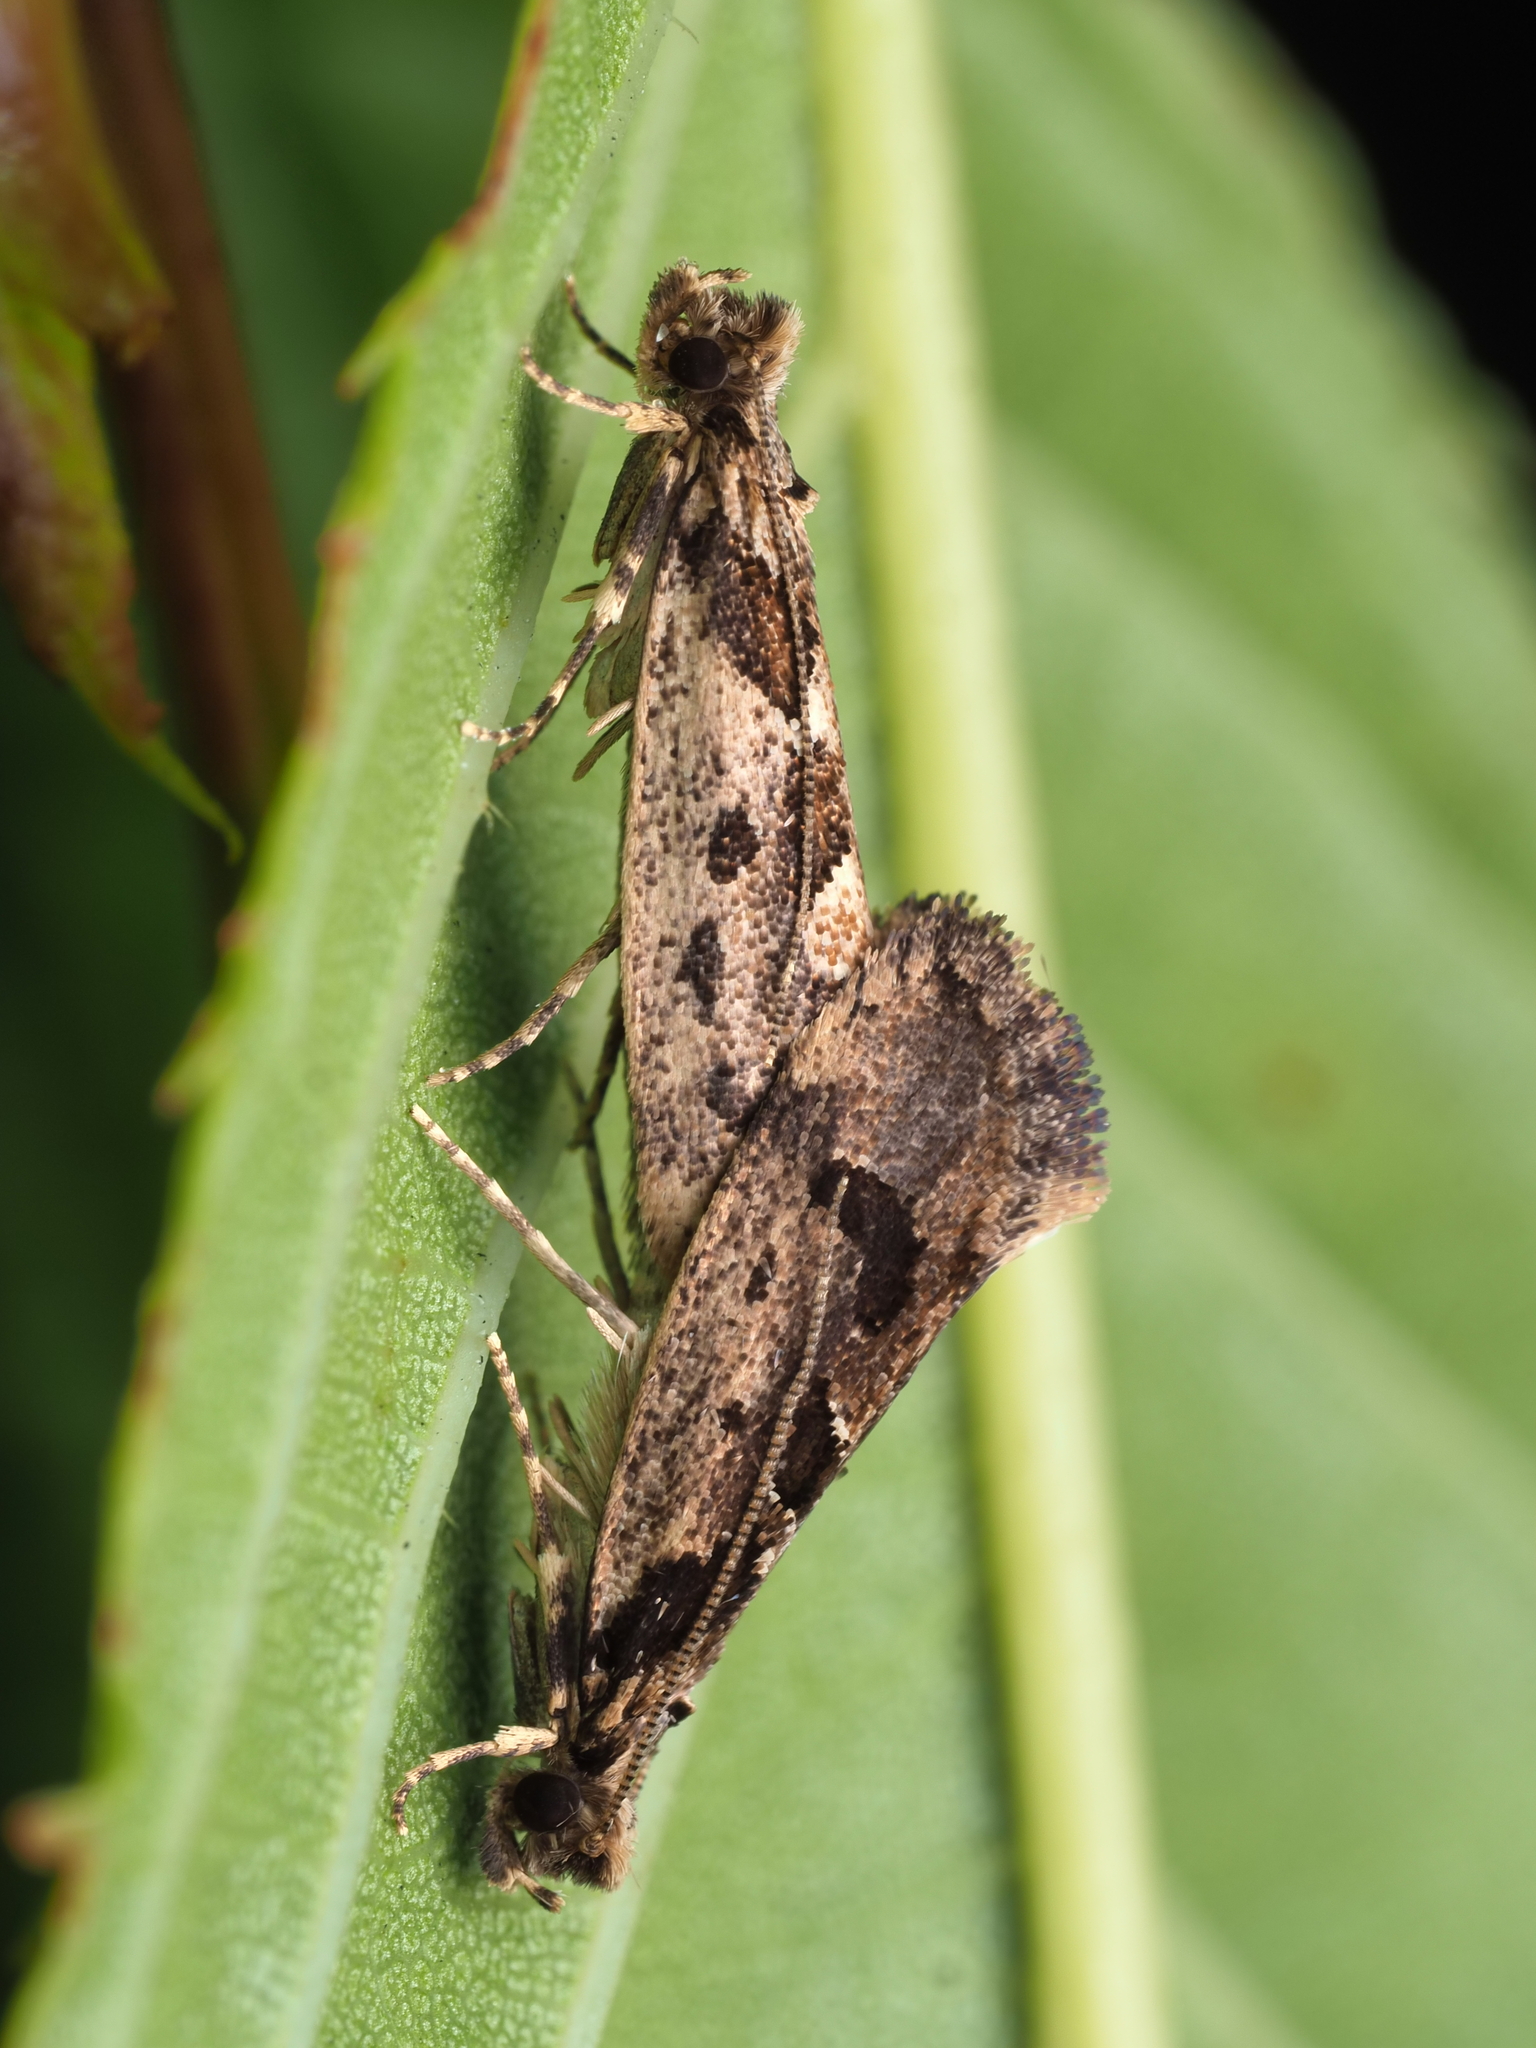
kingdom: Animalia
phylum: Arthropoda
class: Insecta
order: Lepidoptera
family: Tineidae
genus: Erechthias
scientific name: Erechthias capnitis
